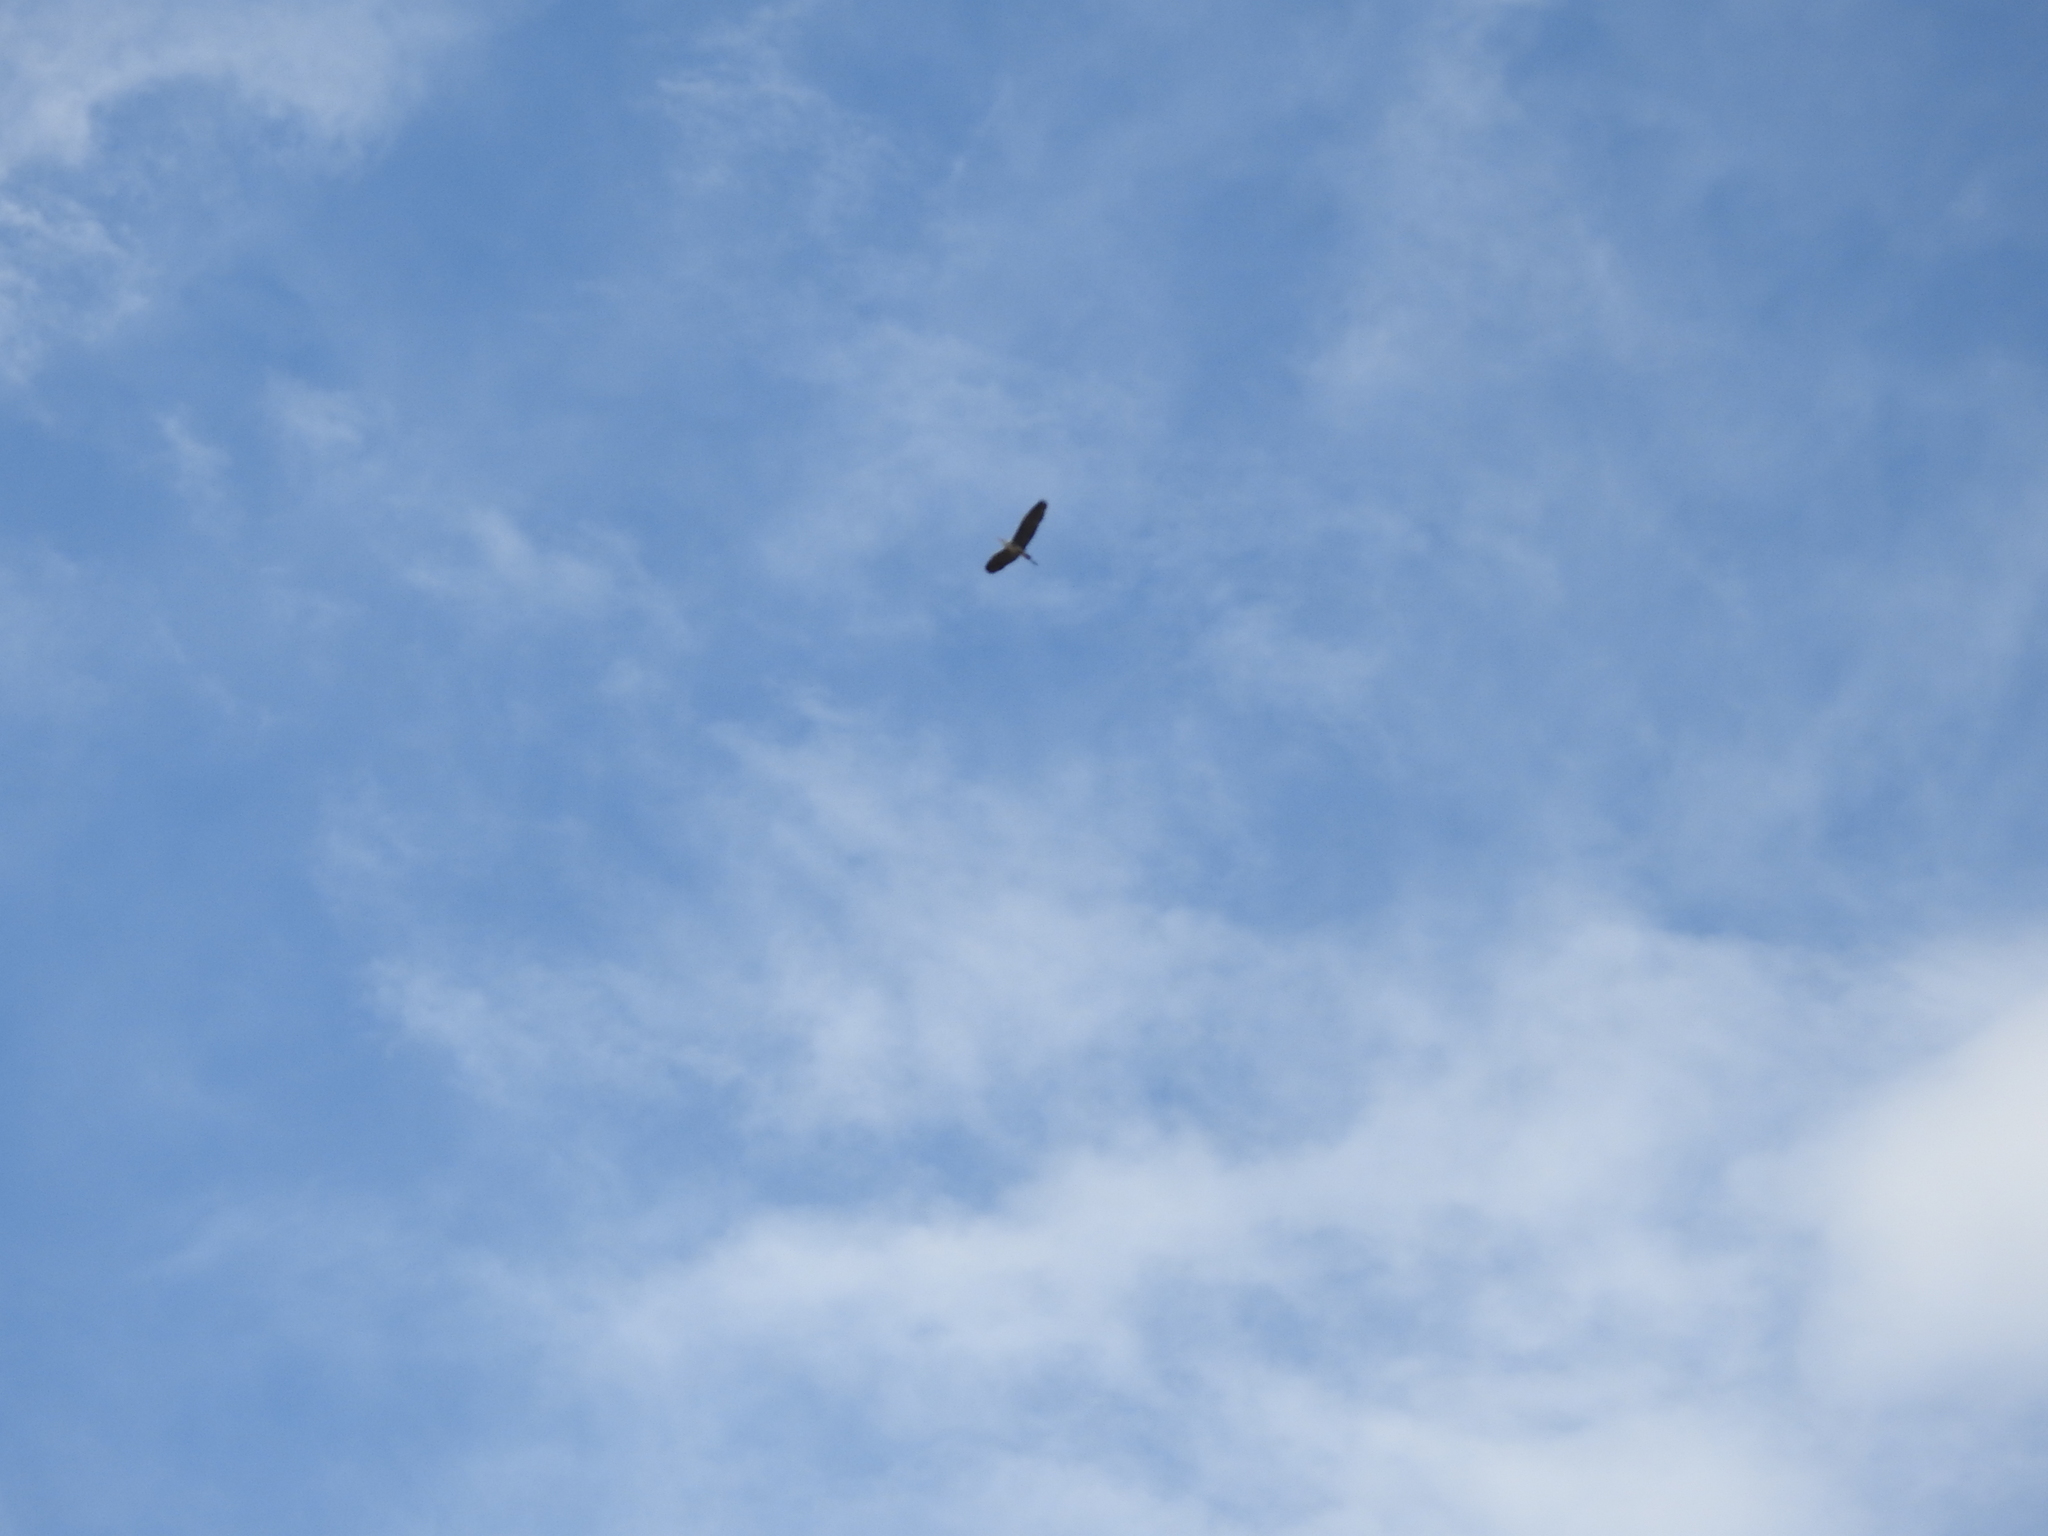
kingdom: Animalia
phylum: Chordata
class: Aves
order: Pelecaniformes
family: Ardeidae
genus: Ardea
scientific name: Ardea cinerea
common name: Grey heron
